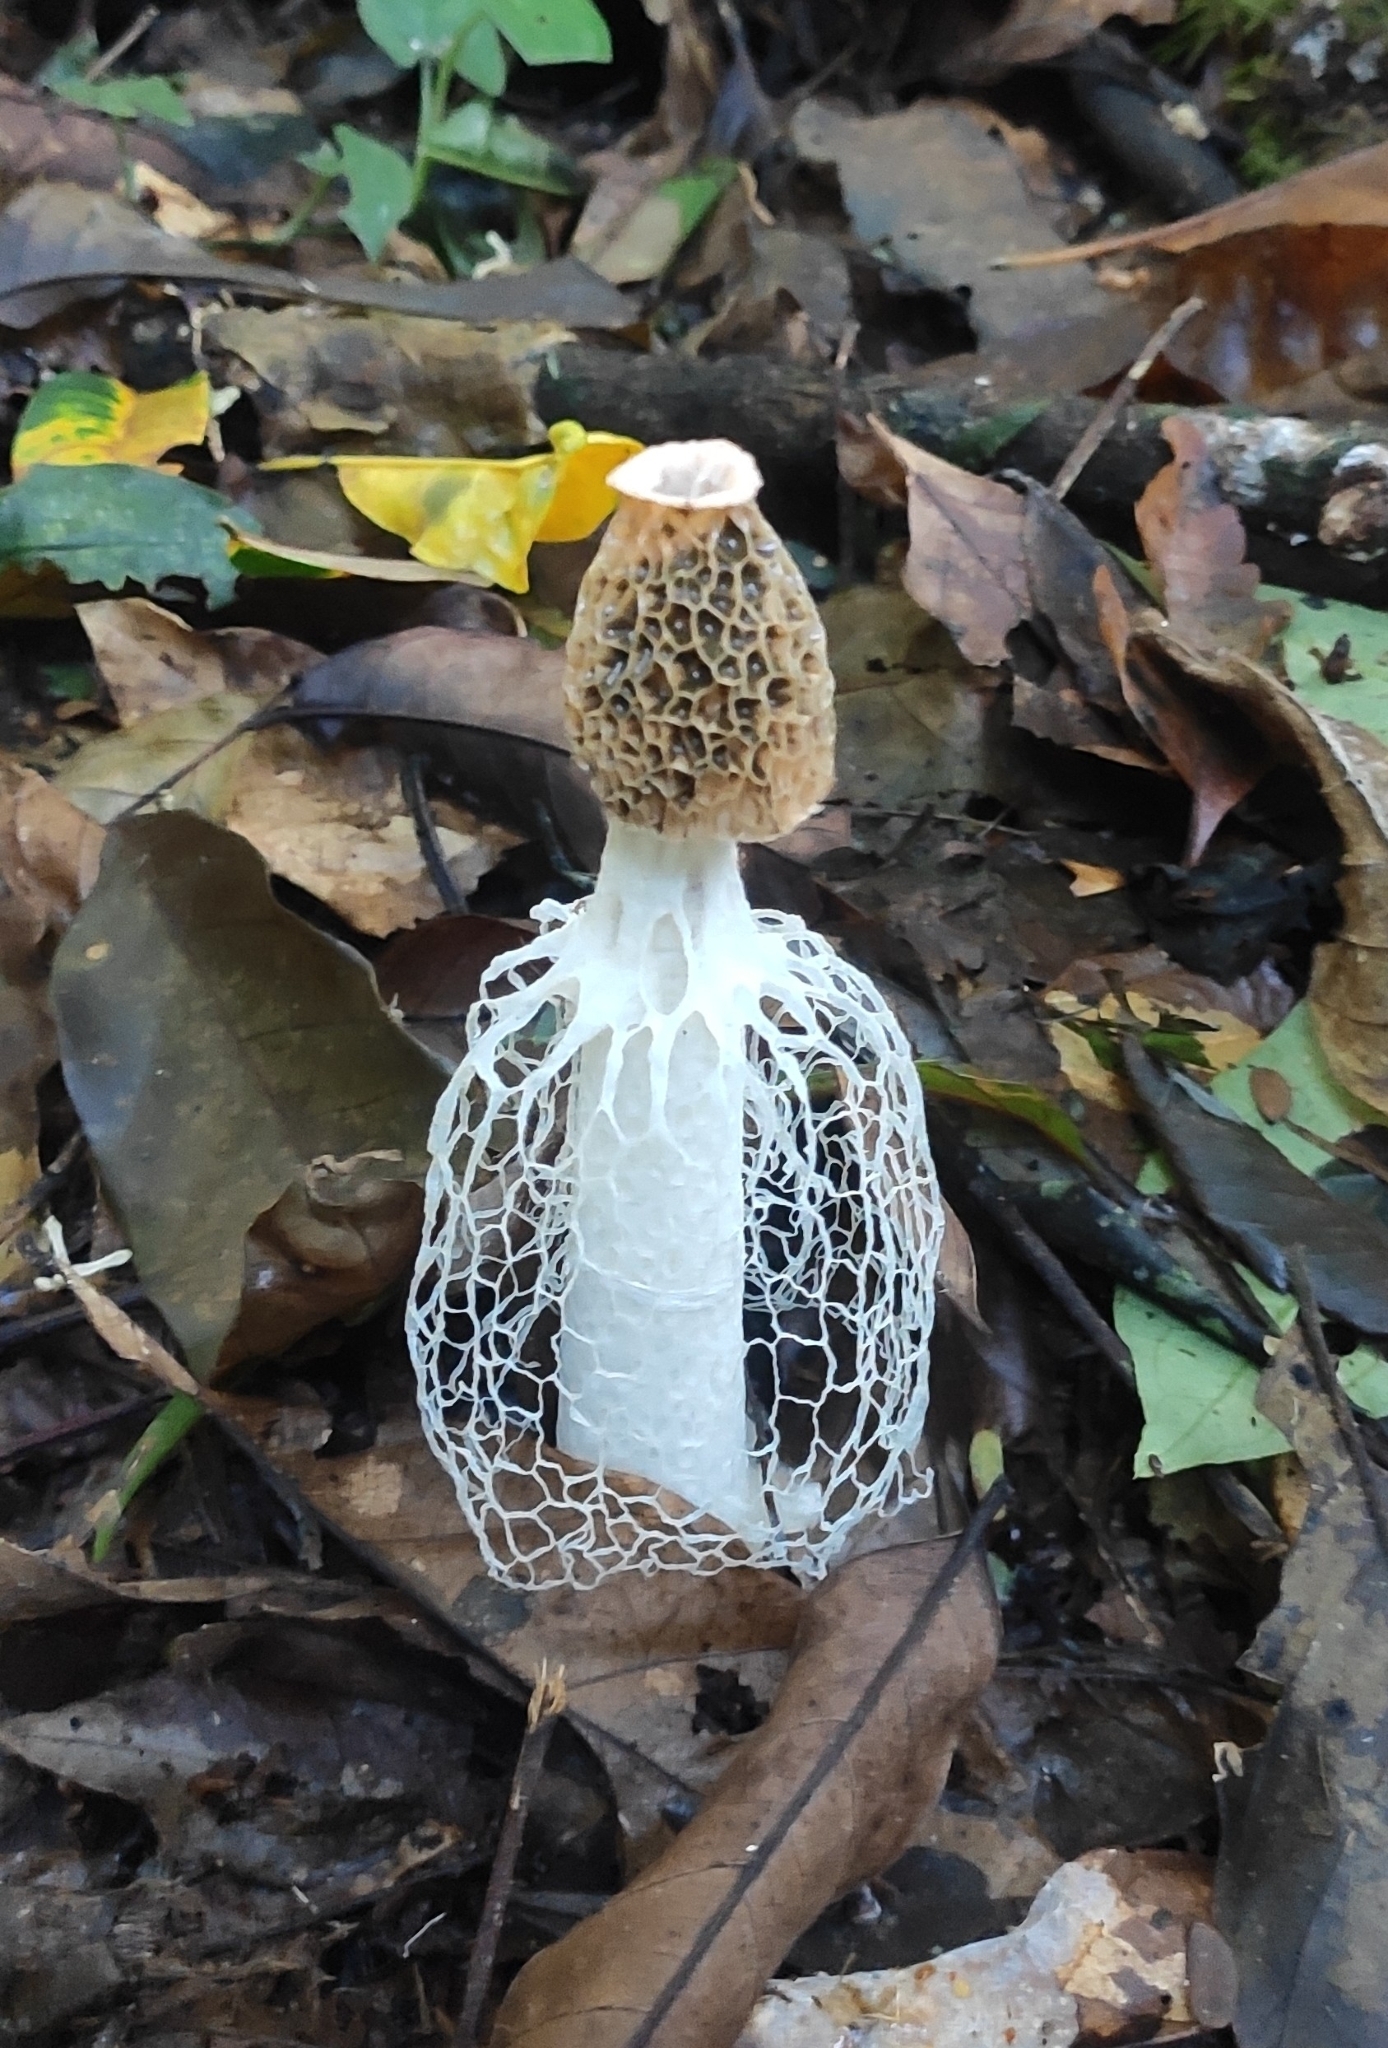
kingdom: Fungi
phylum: Basidiomycota
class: Agaricomycetes
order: Phallales
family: Phallaceae
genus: Phallus
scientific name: Phallus indusiatus
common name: Bridal veil stinkhorn
